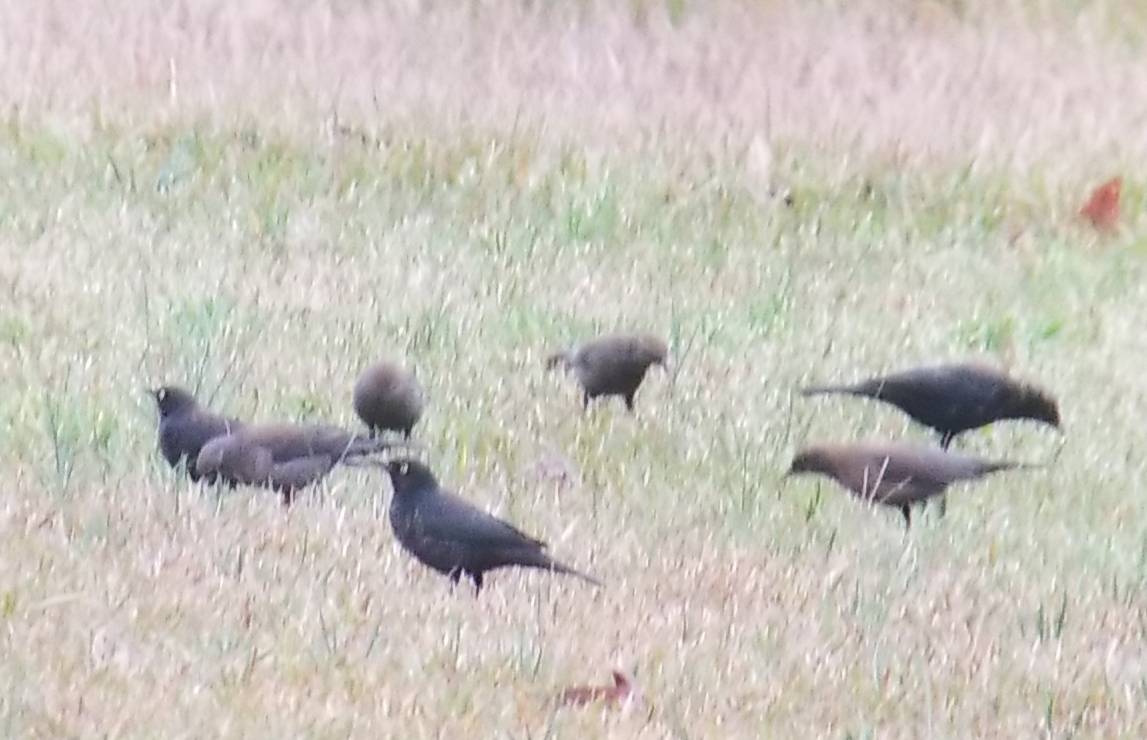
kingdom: Animalia
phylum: Chordata
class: Aves
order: Passeriformes
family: Icteridae
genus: Euphagus
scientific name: Euphagus carolinus
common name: Rusty blackbird
